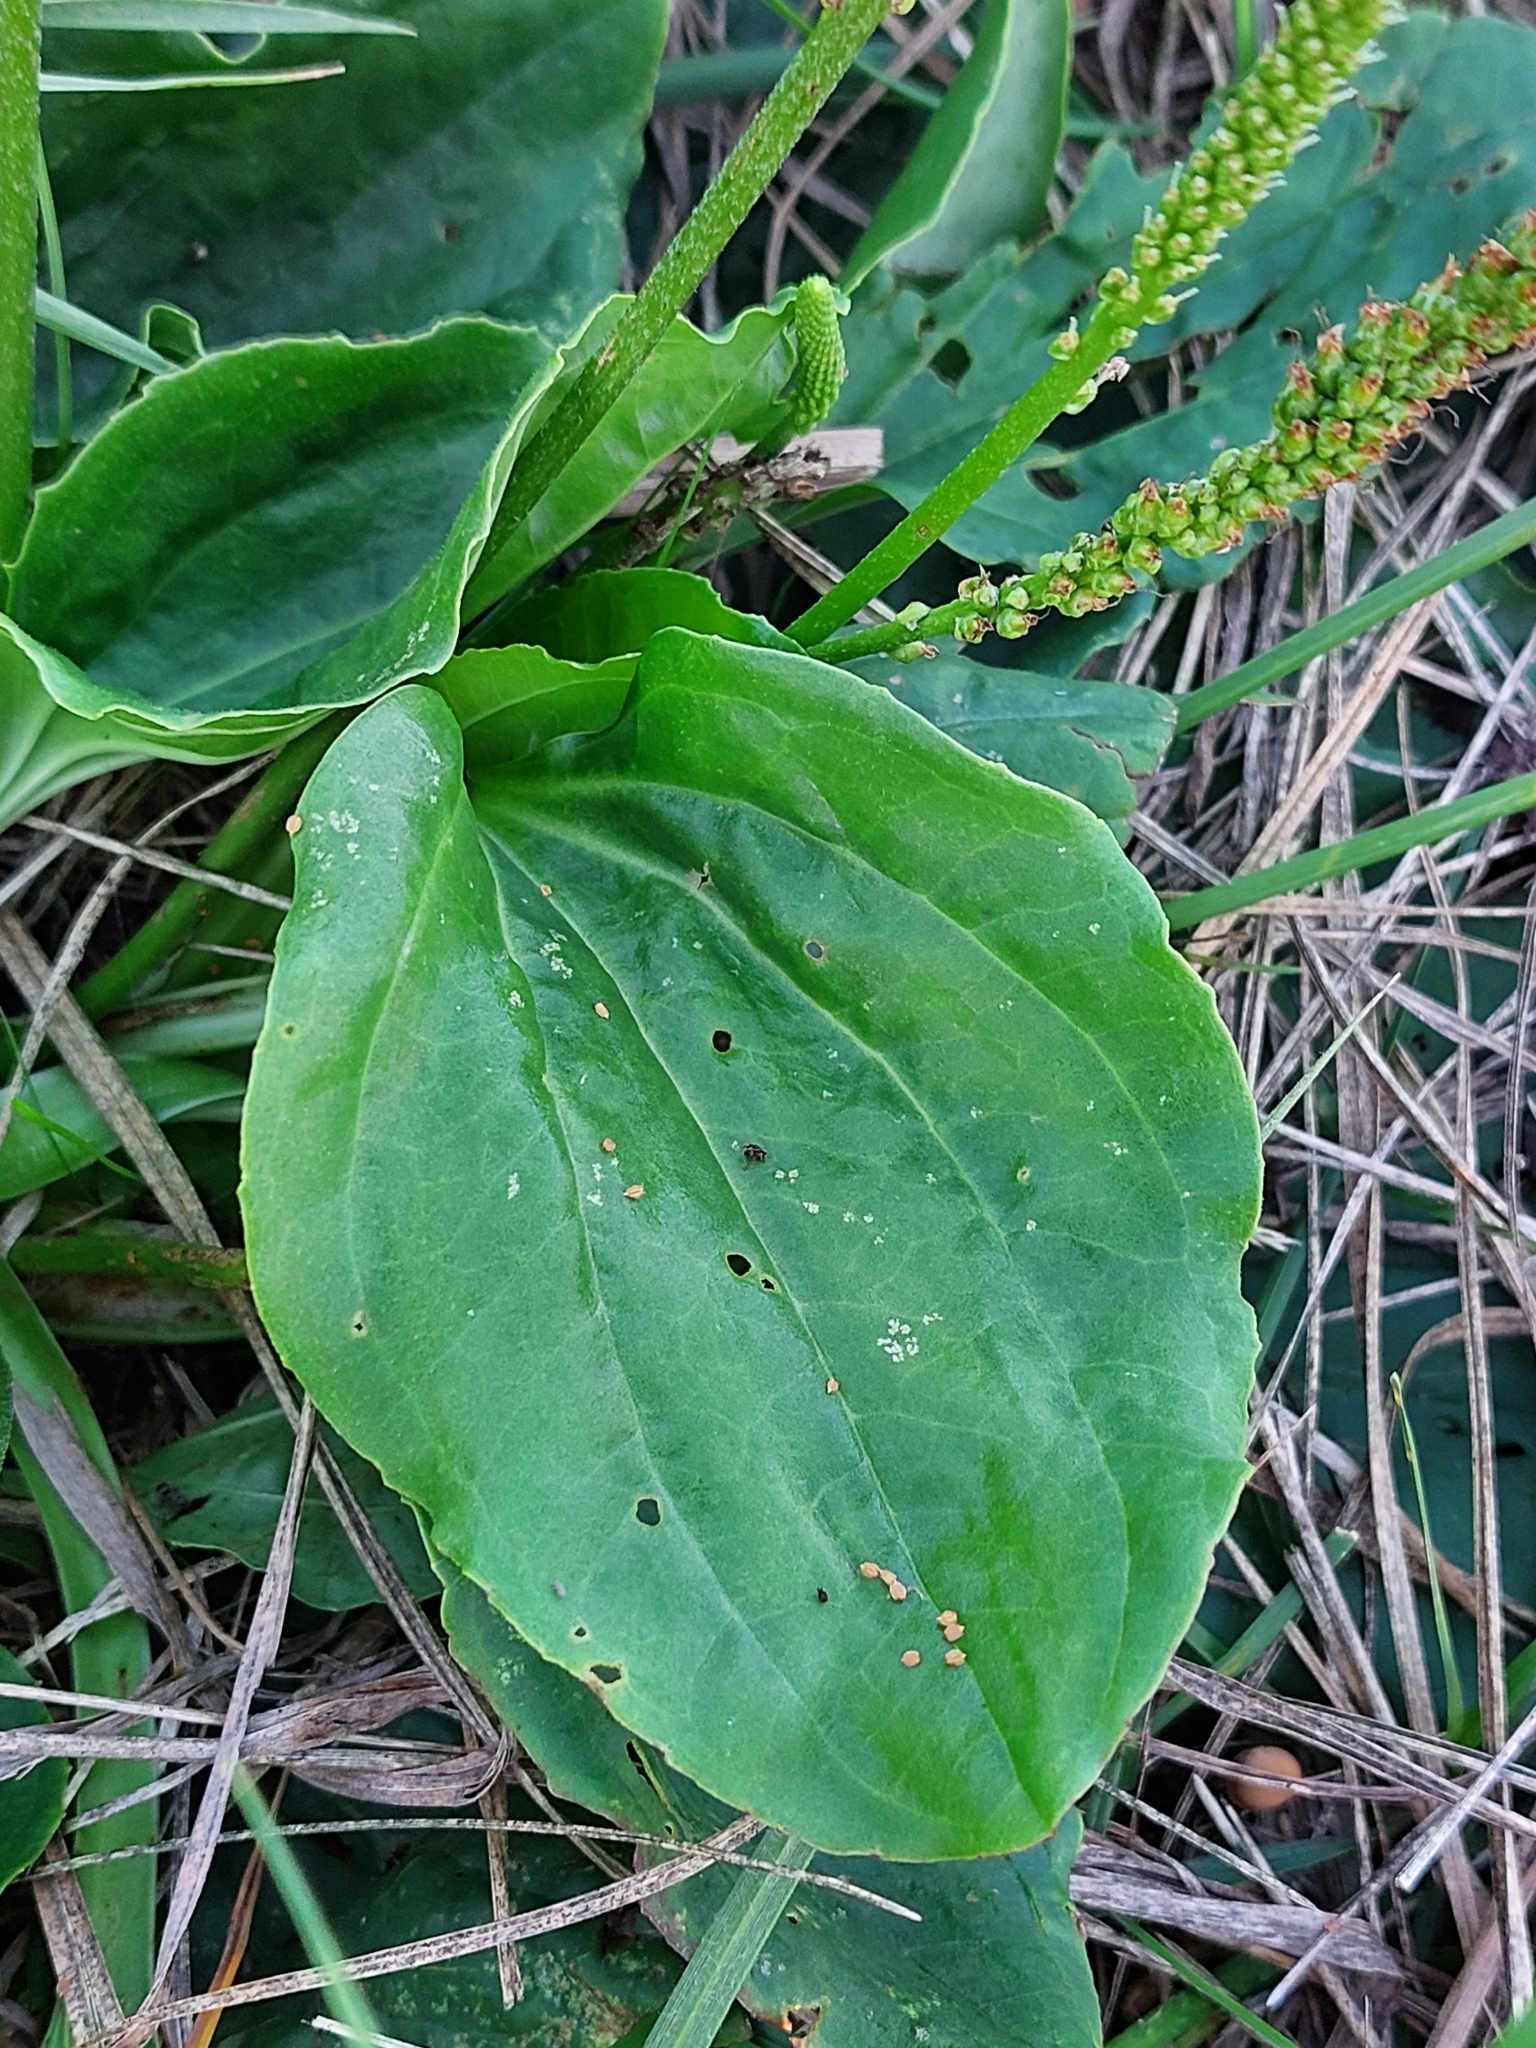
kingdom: Plantae
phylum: Tracheophyta
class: Magnoliopsida
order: Lamiales
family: Plantaginaceae
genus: Plantago
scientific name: Plantago major
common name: Common plantain
